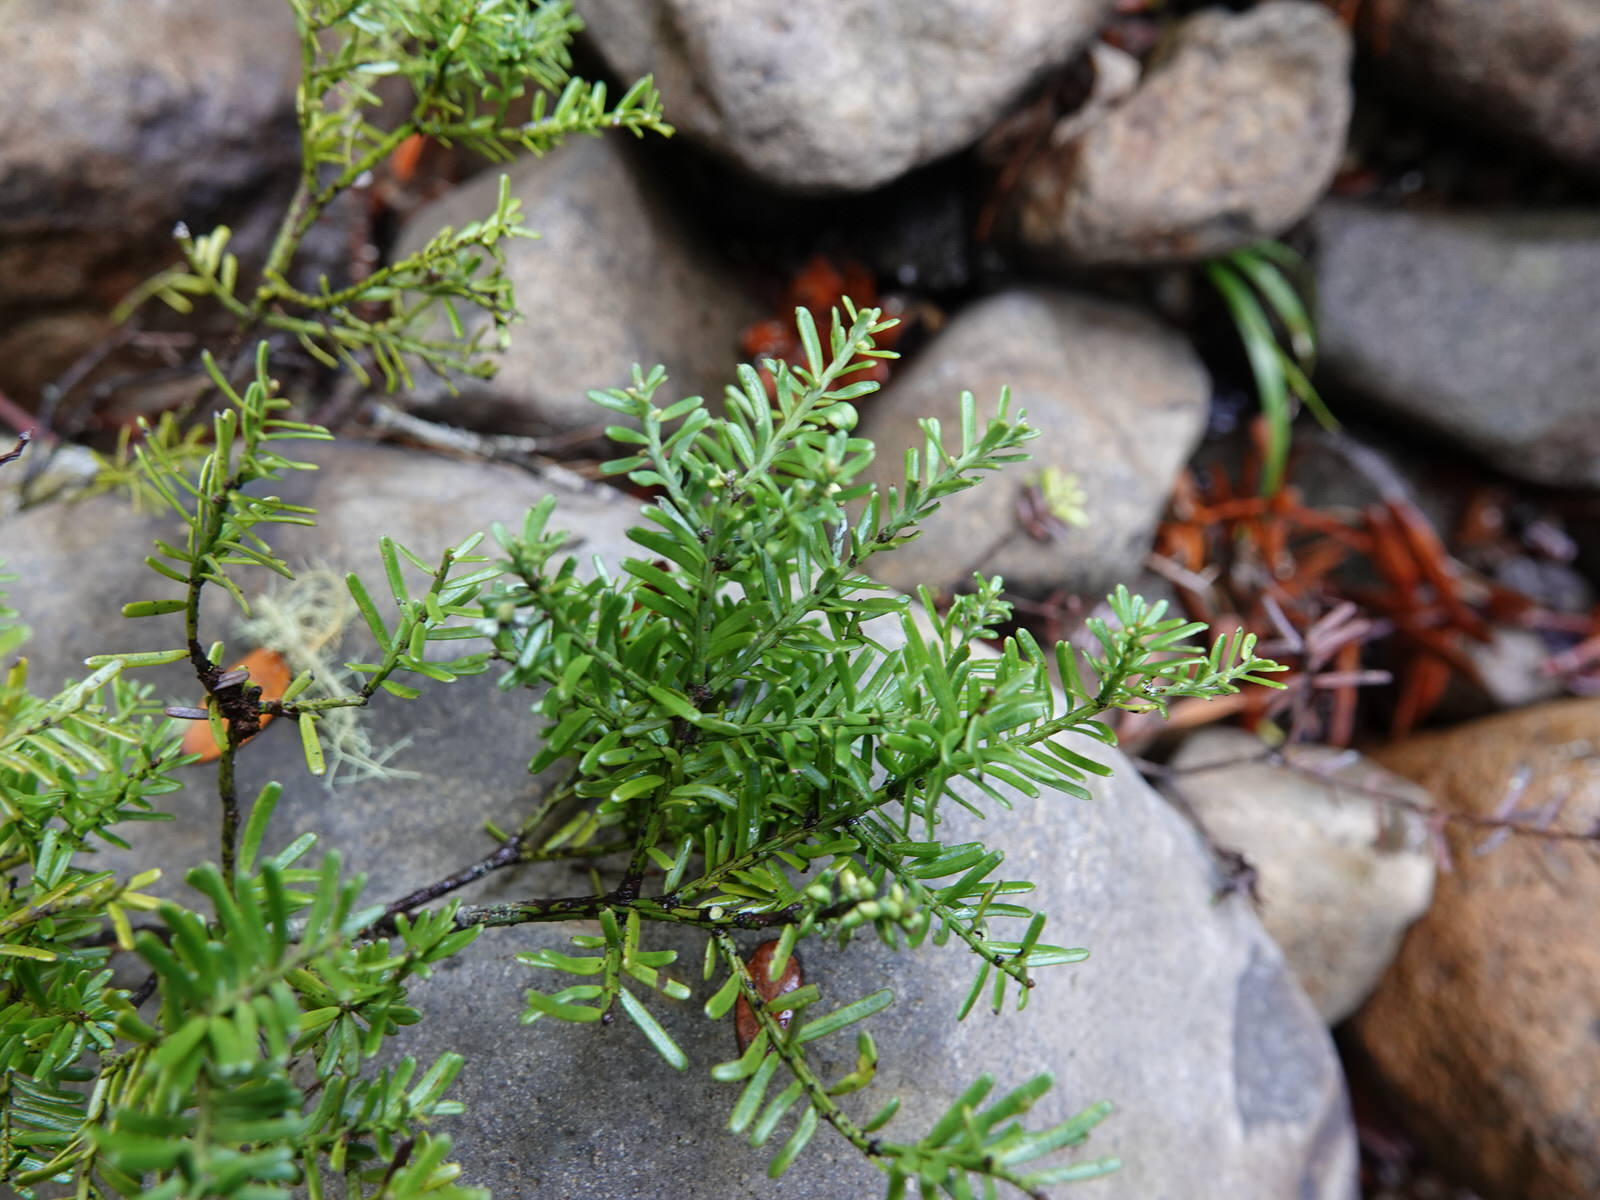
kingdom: Plantae
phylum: Tracheophyta
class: Pinopsida
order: Pinales
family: Podocarpaceae
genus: Prumnopitys
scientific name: Prumnopitys taxifolia
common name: Matai
